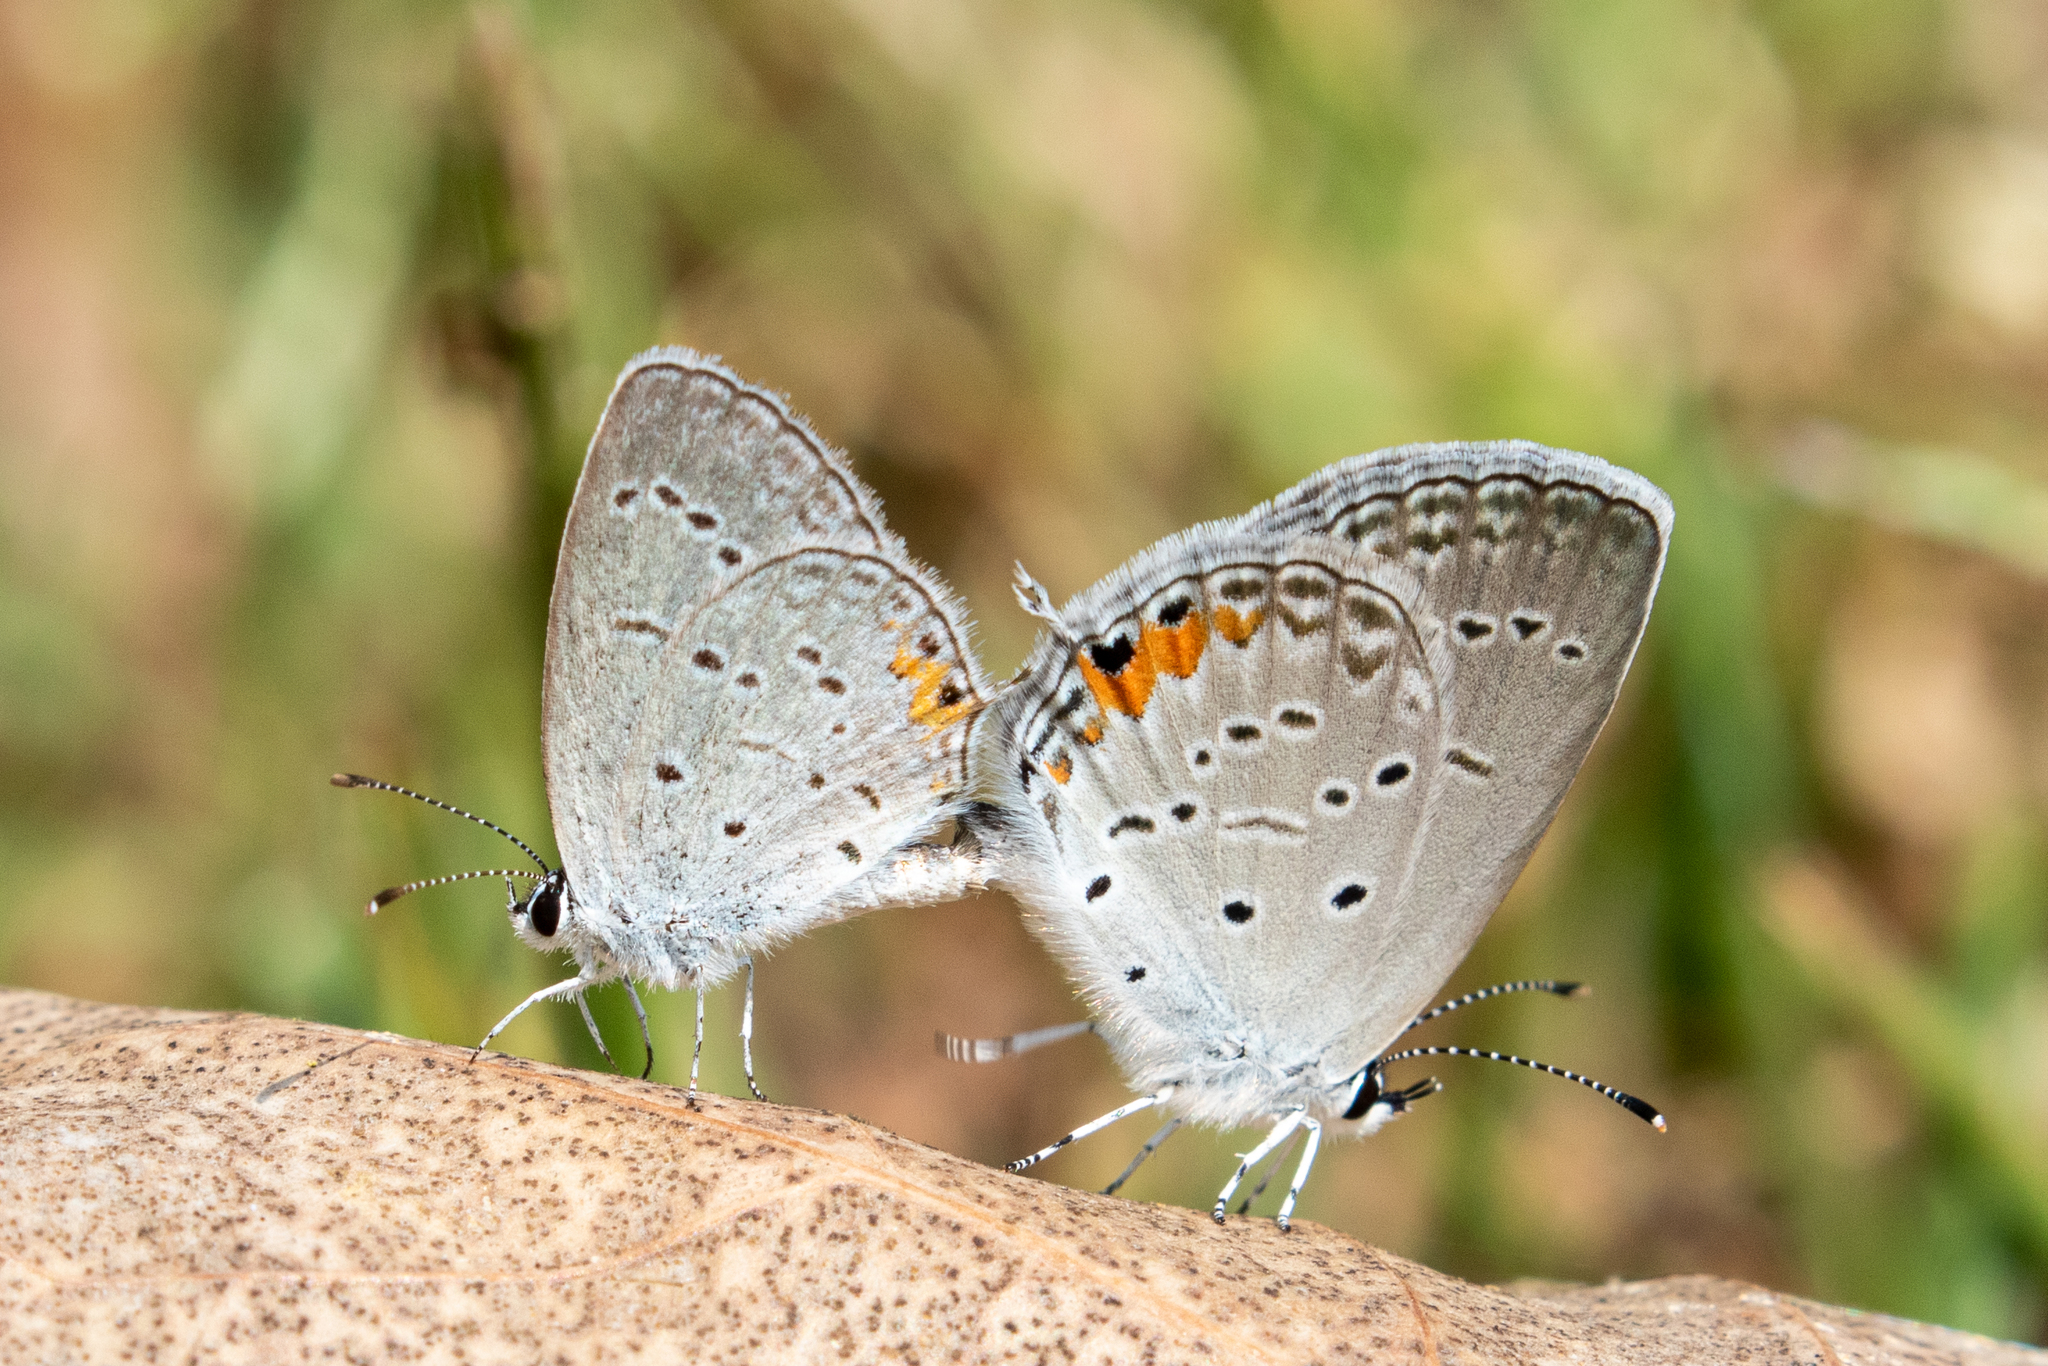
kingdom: Animalia
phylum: Arthropoda
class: Insecta
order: Lepidoptera
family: Lycaenidae
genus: Elkalyce
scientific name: Elkalyce comyntas
